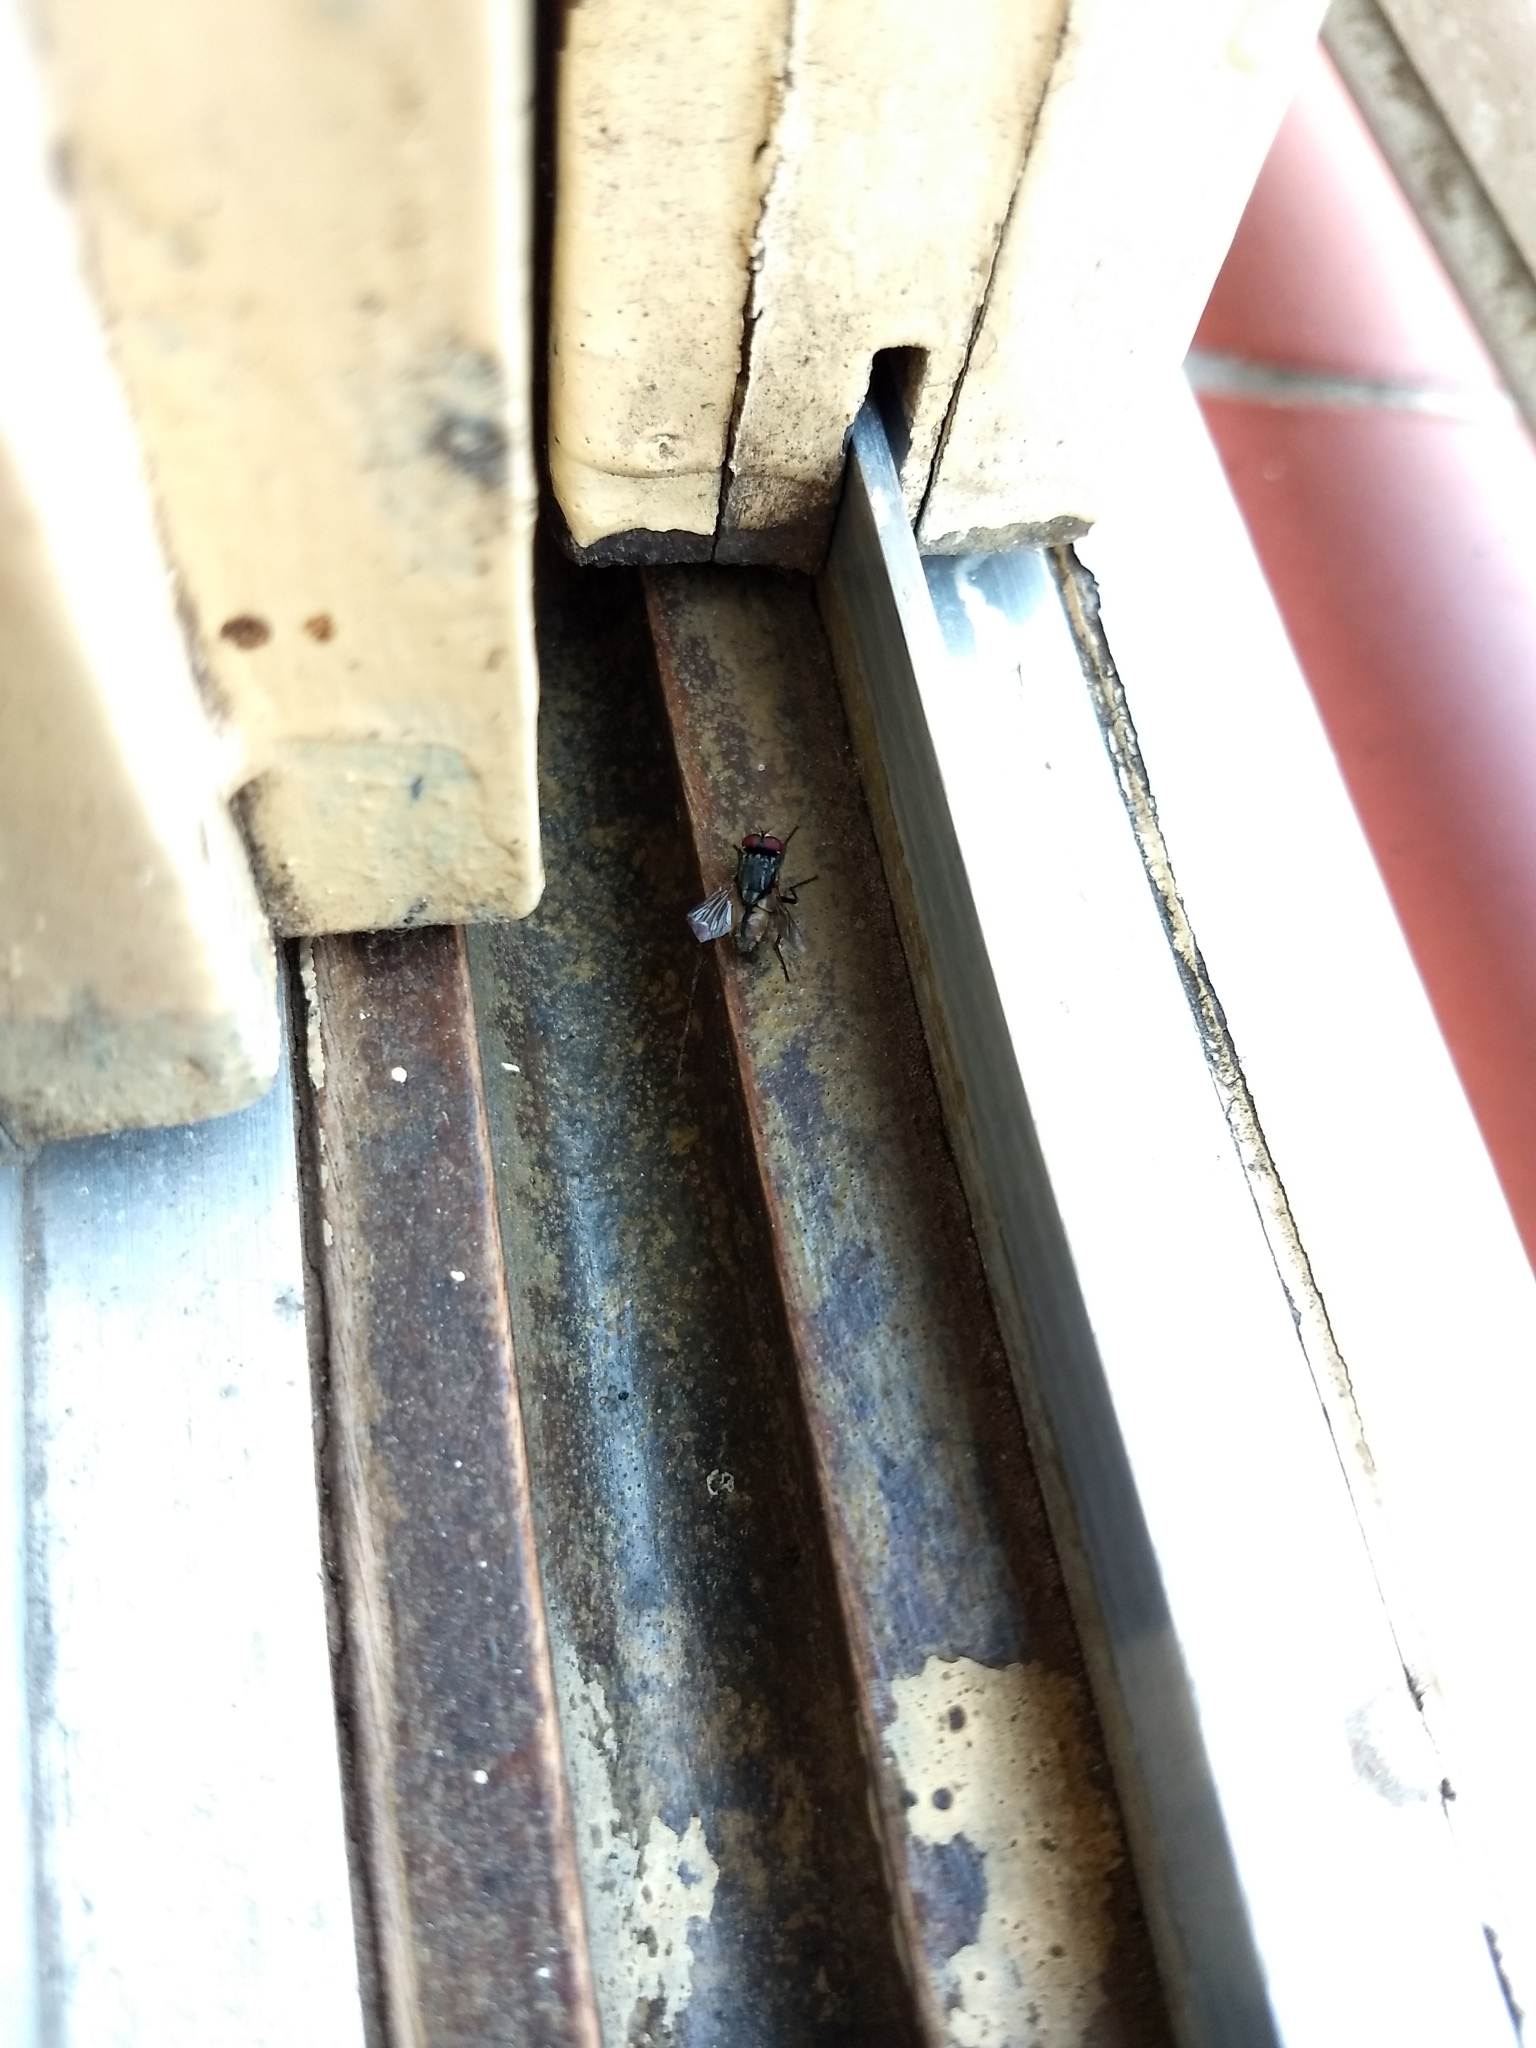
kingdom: Animalia
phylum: Arthropoda
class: Insecta
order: Diptera
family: Muscidae
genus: Musca
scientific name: Musca domestica
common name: House fly
